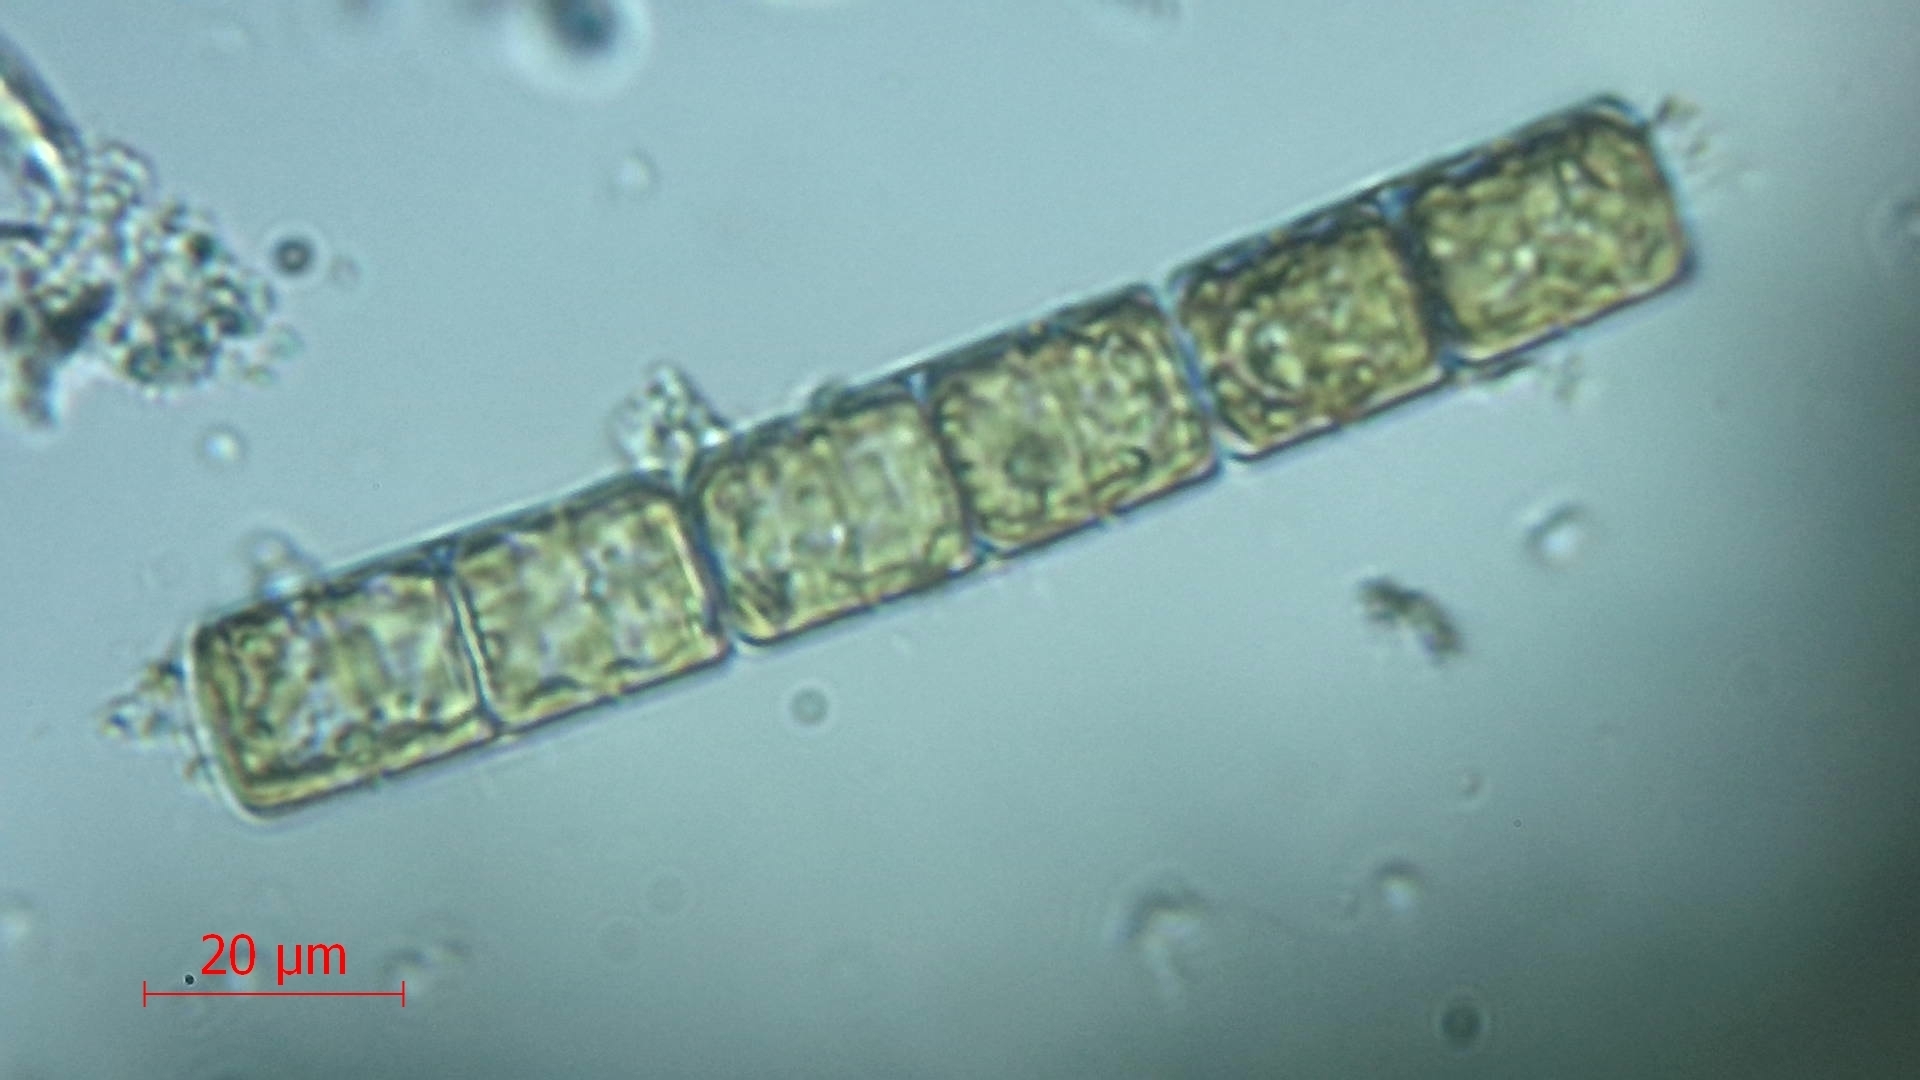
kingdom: Chromista
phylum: Ochrophyta
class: Bacillariophyceae
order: Melosirales
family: Melosiraceae
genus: Melosira
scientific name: Melosira varians
